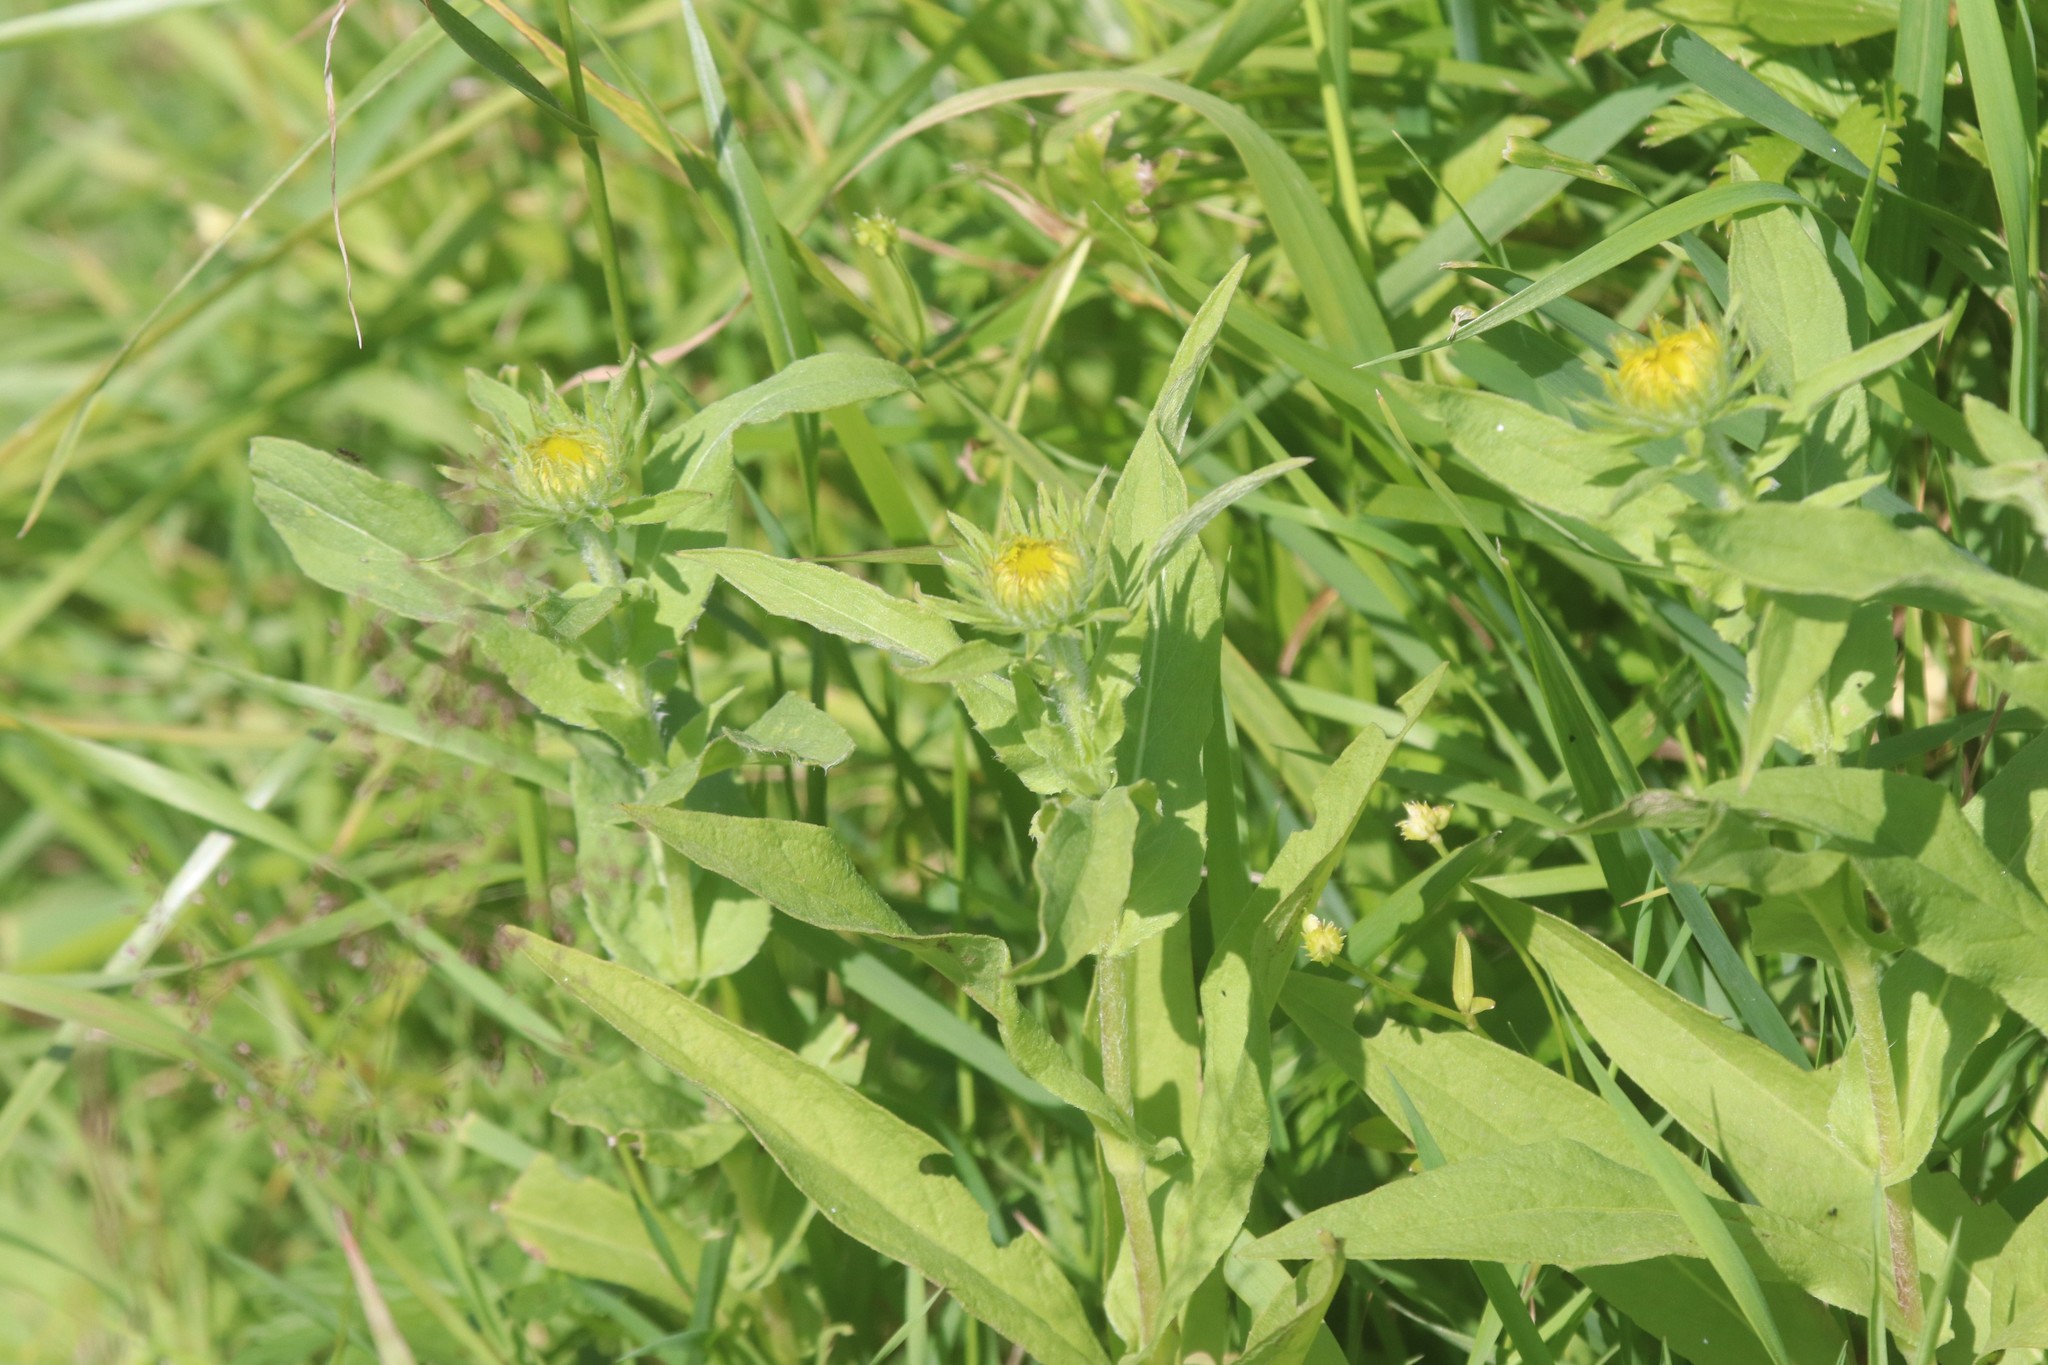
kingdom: Plantae
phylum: Tracheophyta
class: Magnoliopsida
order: Asterales
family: Asteraceae
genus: Pentanema
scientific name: Pentanema britannicum
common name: British elecampane
